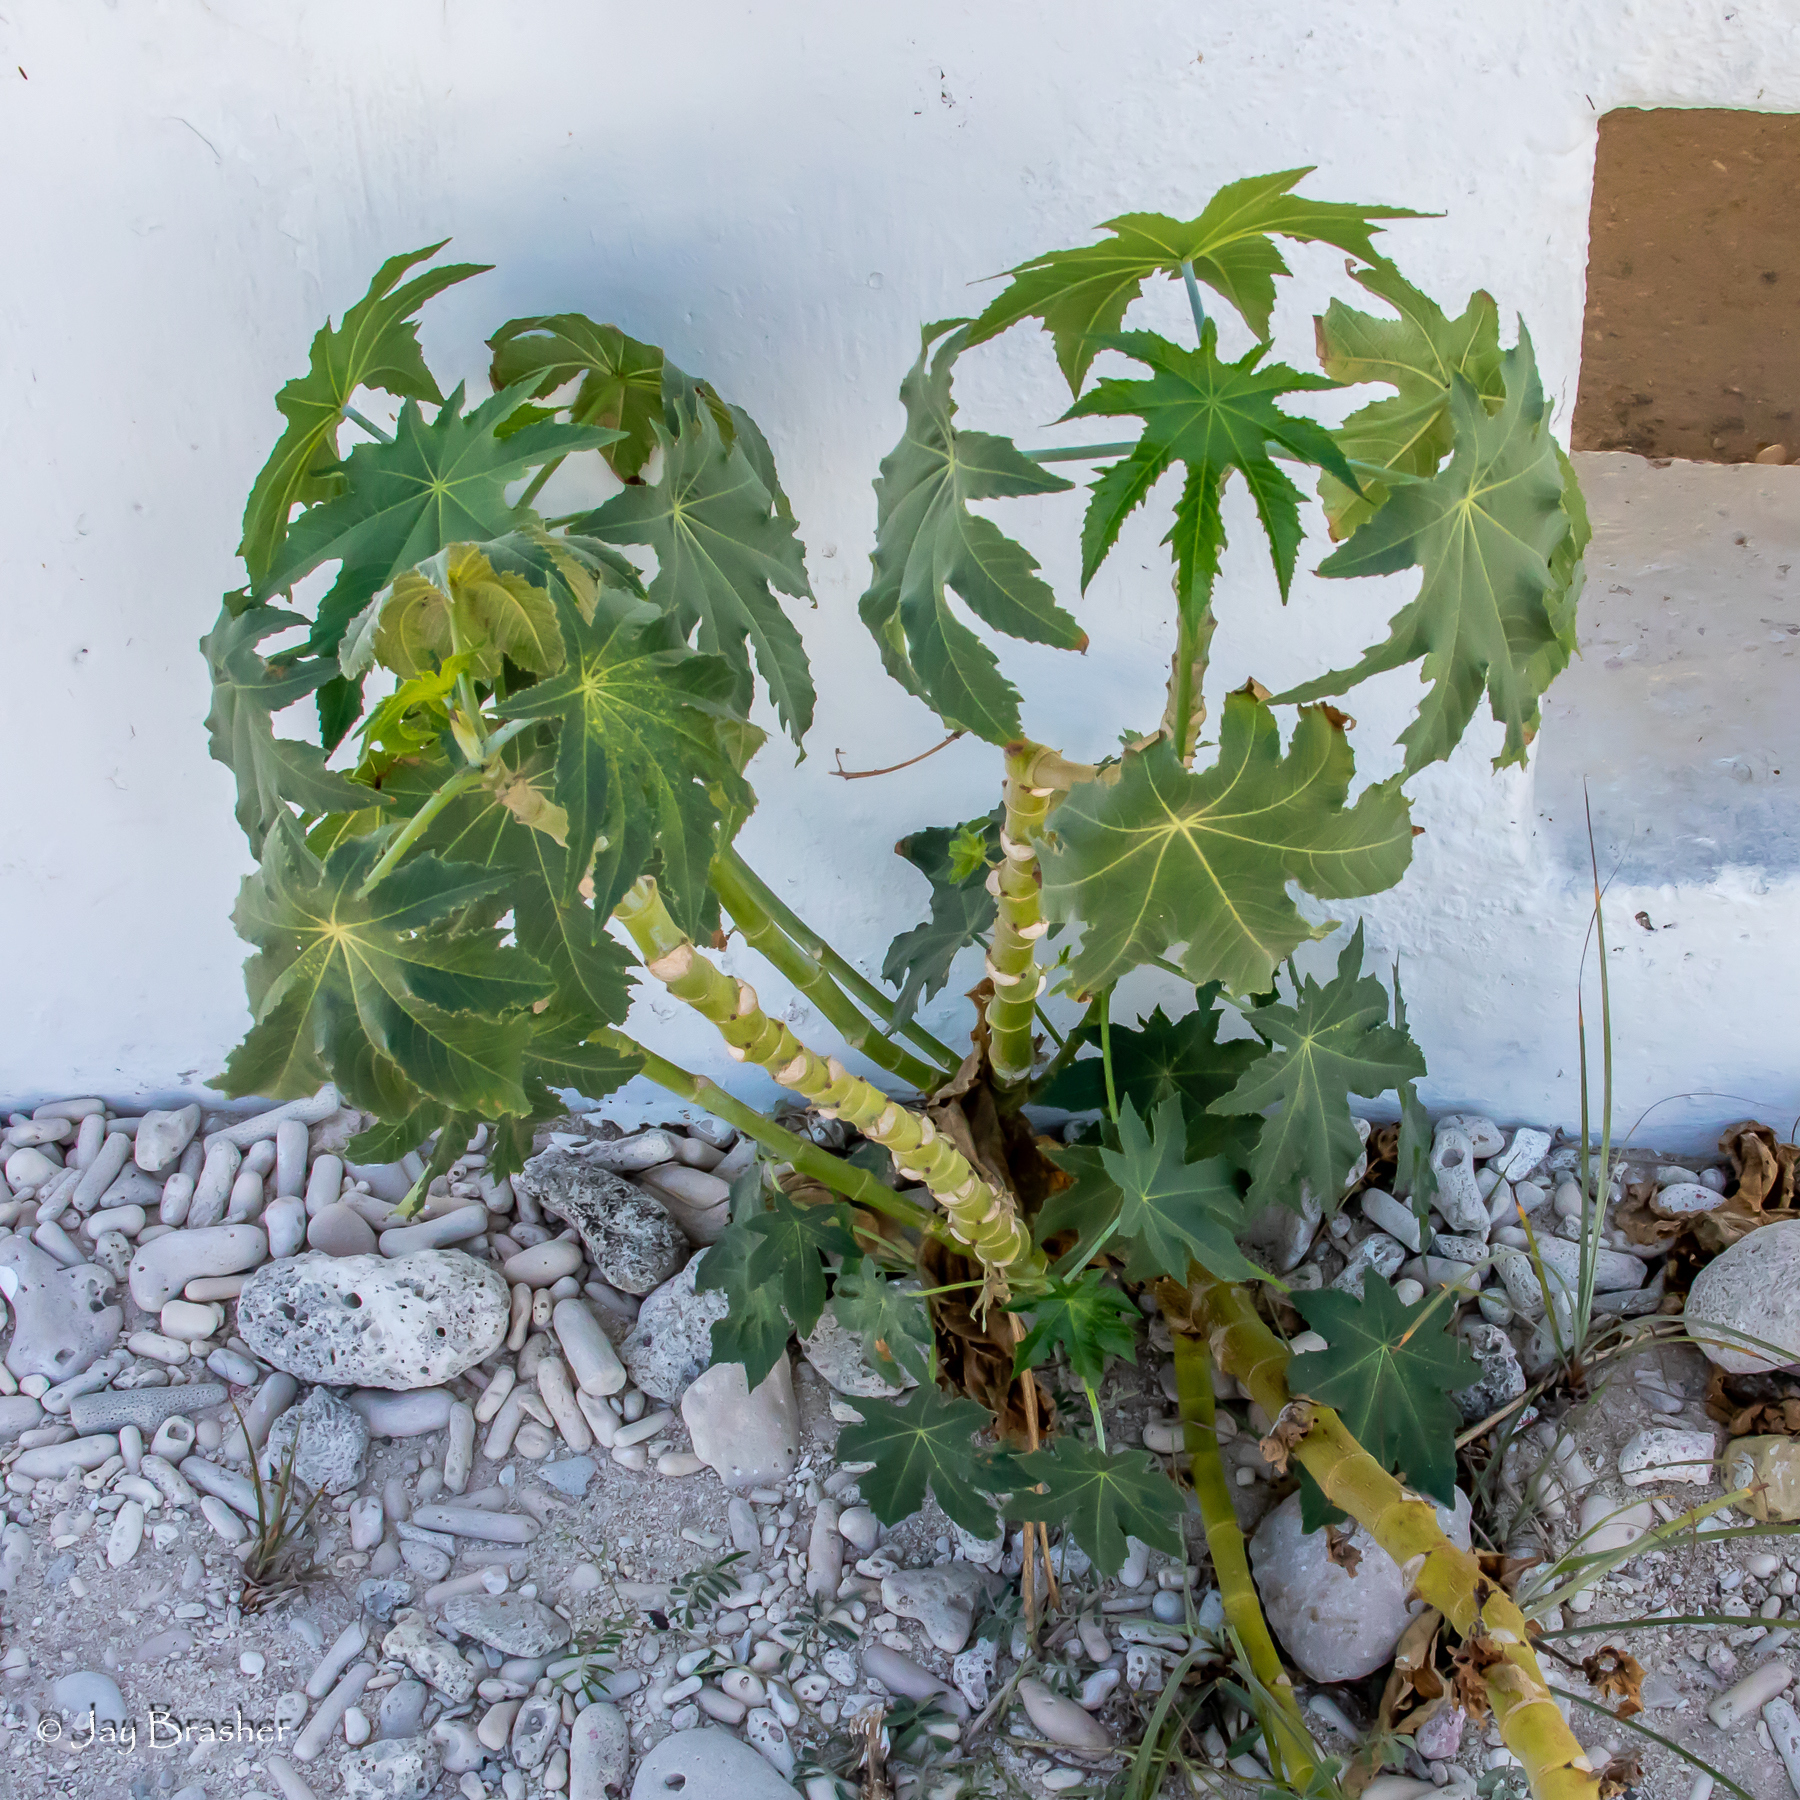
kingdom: Plantae
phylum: Tracheophyta
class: Magnoliopsida
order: Malpighiales
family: Euphorbiaceae
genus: Ricinus
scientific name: Ricinus communis
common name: Castor-oil-plant
